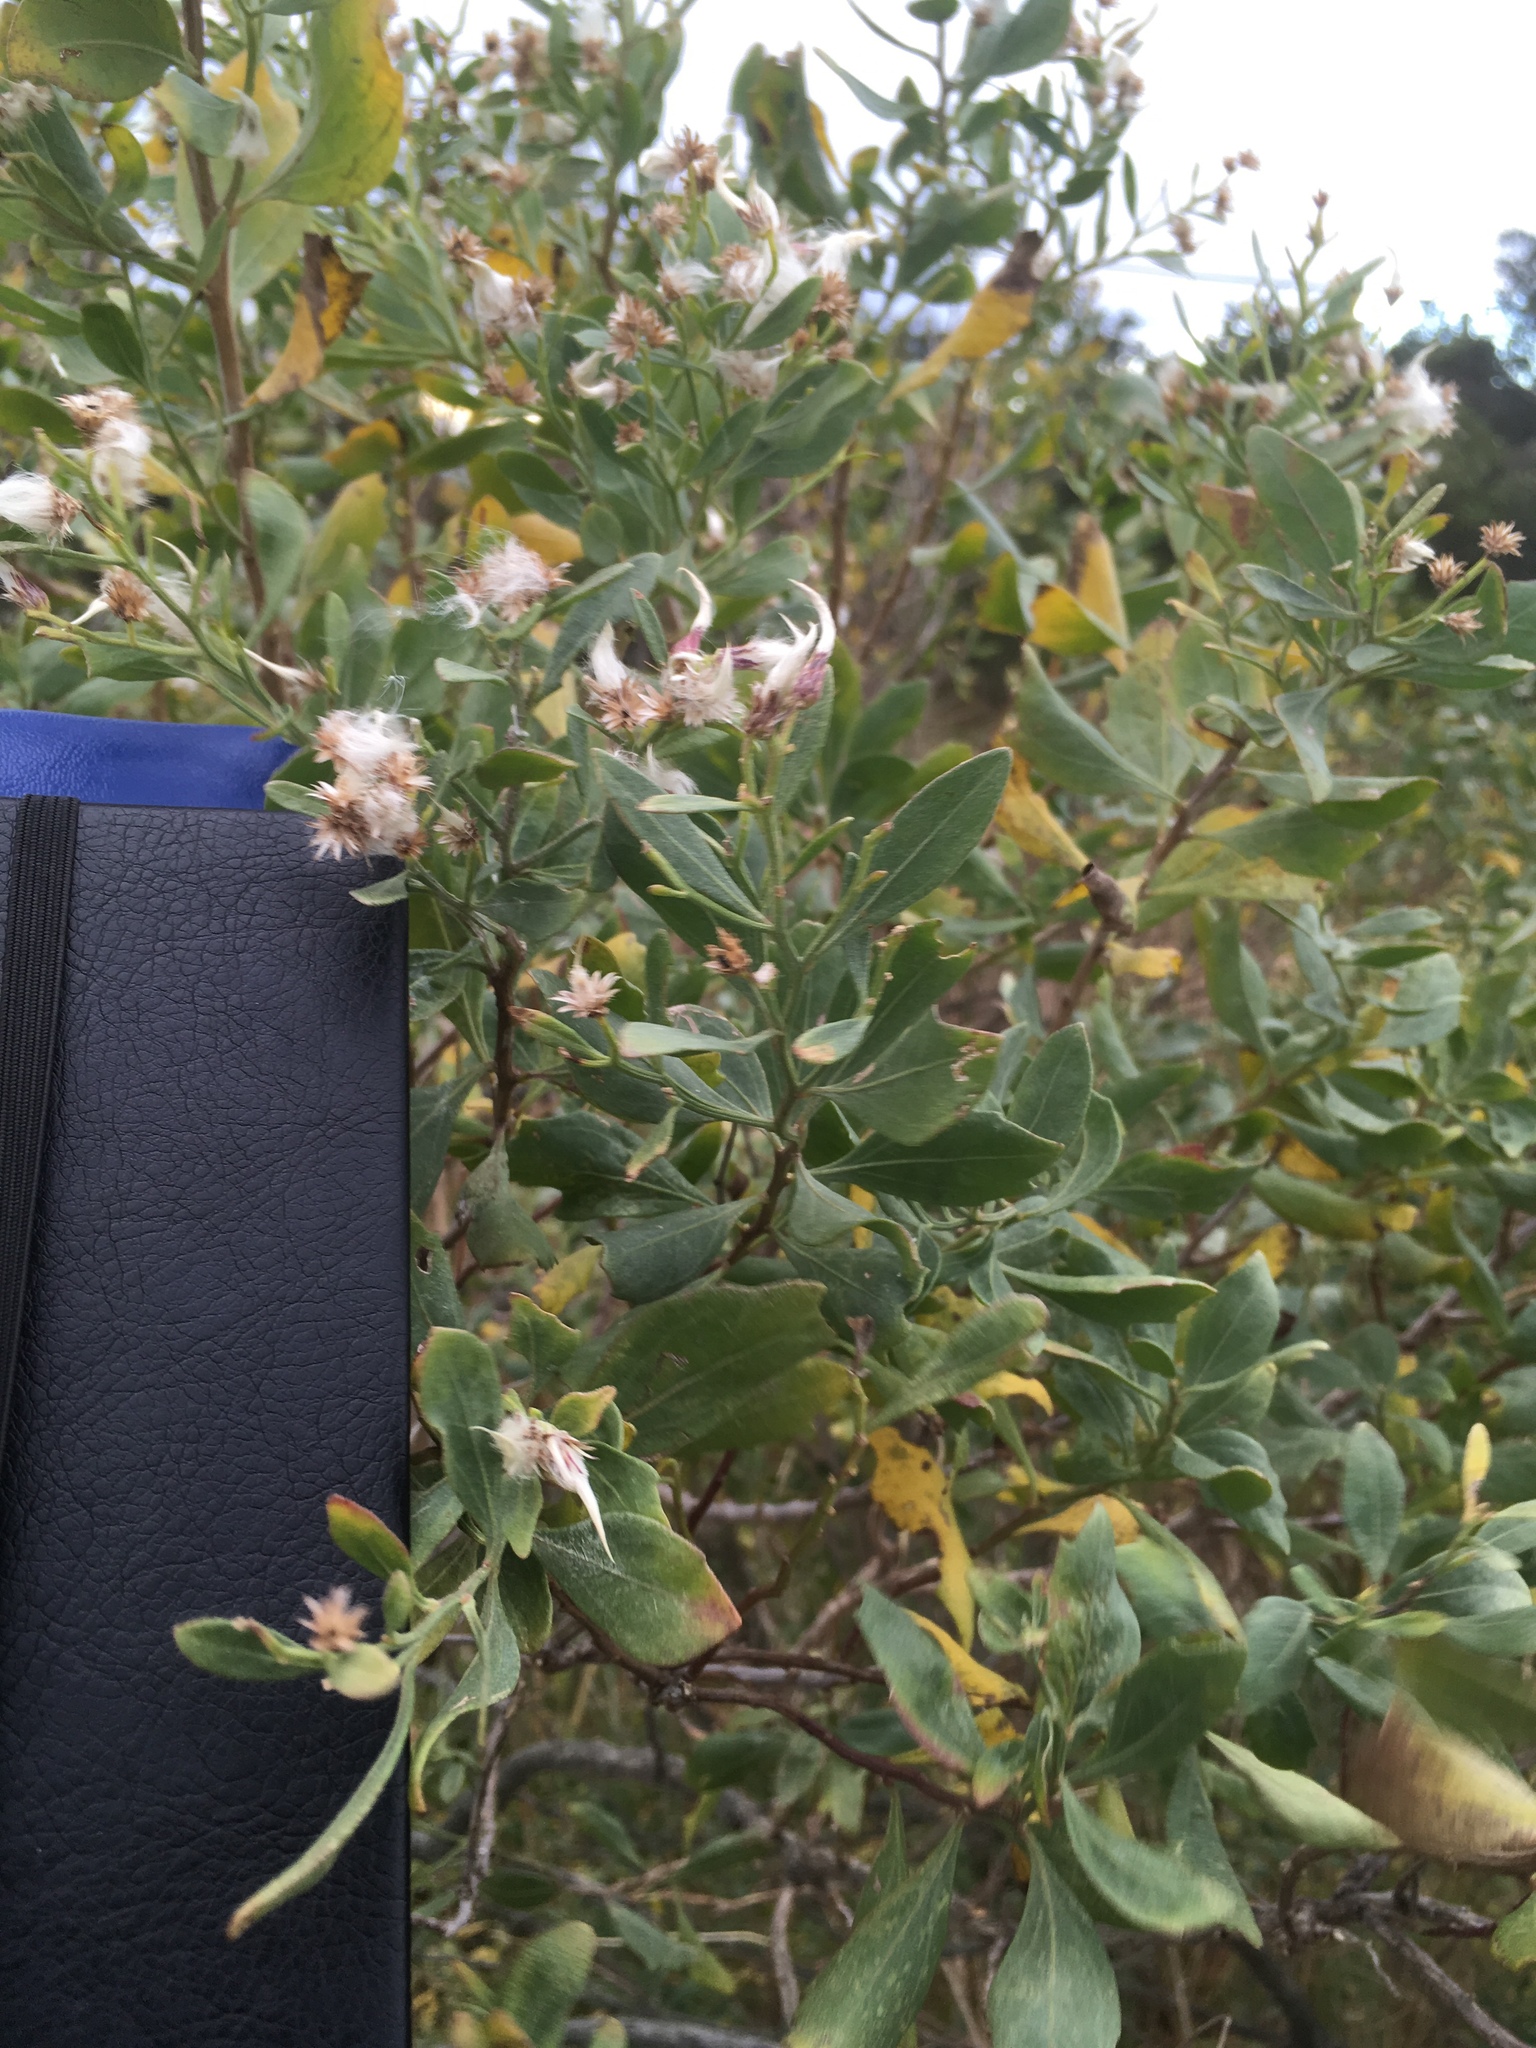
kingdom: Plantae
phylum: Tracheophyta
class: Magnoliopsida
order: Asterales
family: Asteraceae
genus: Baccharis
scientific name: Baccharis halimifolia
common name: Eastern baccharis
